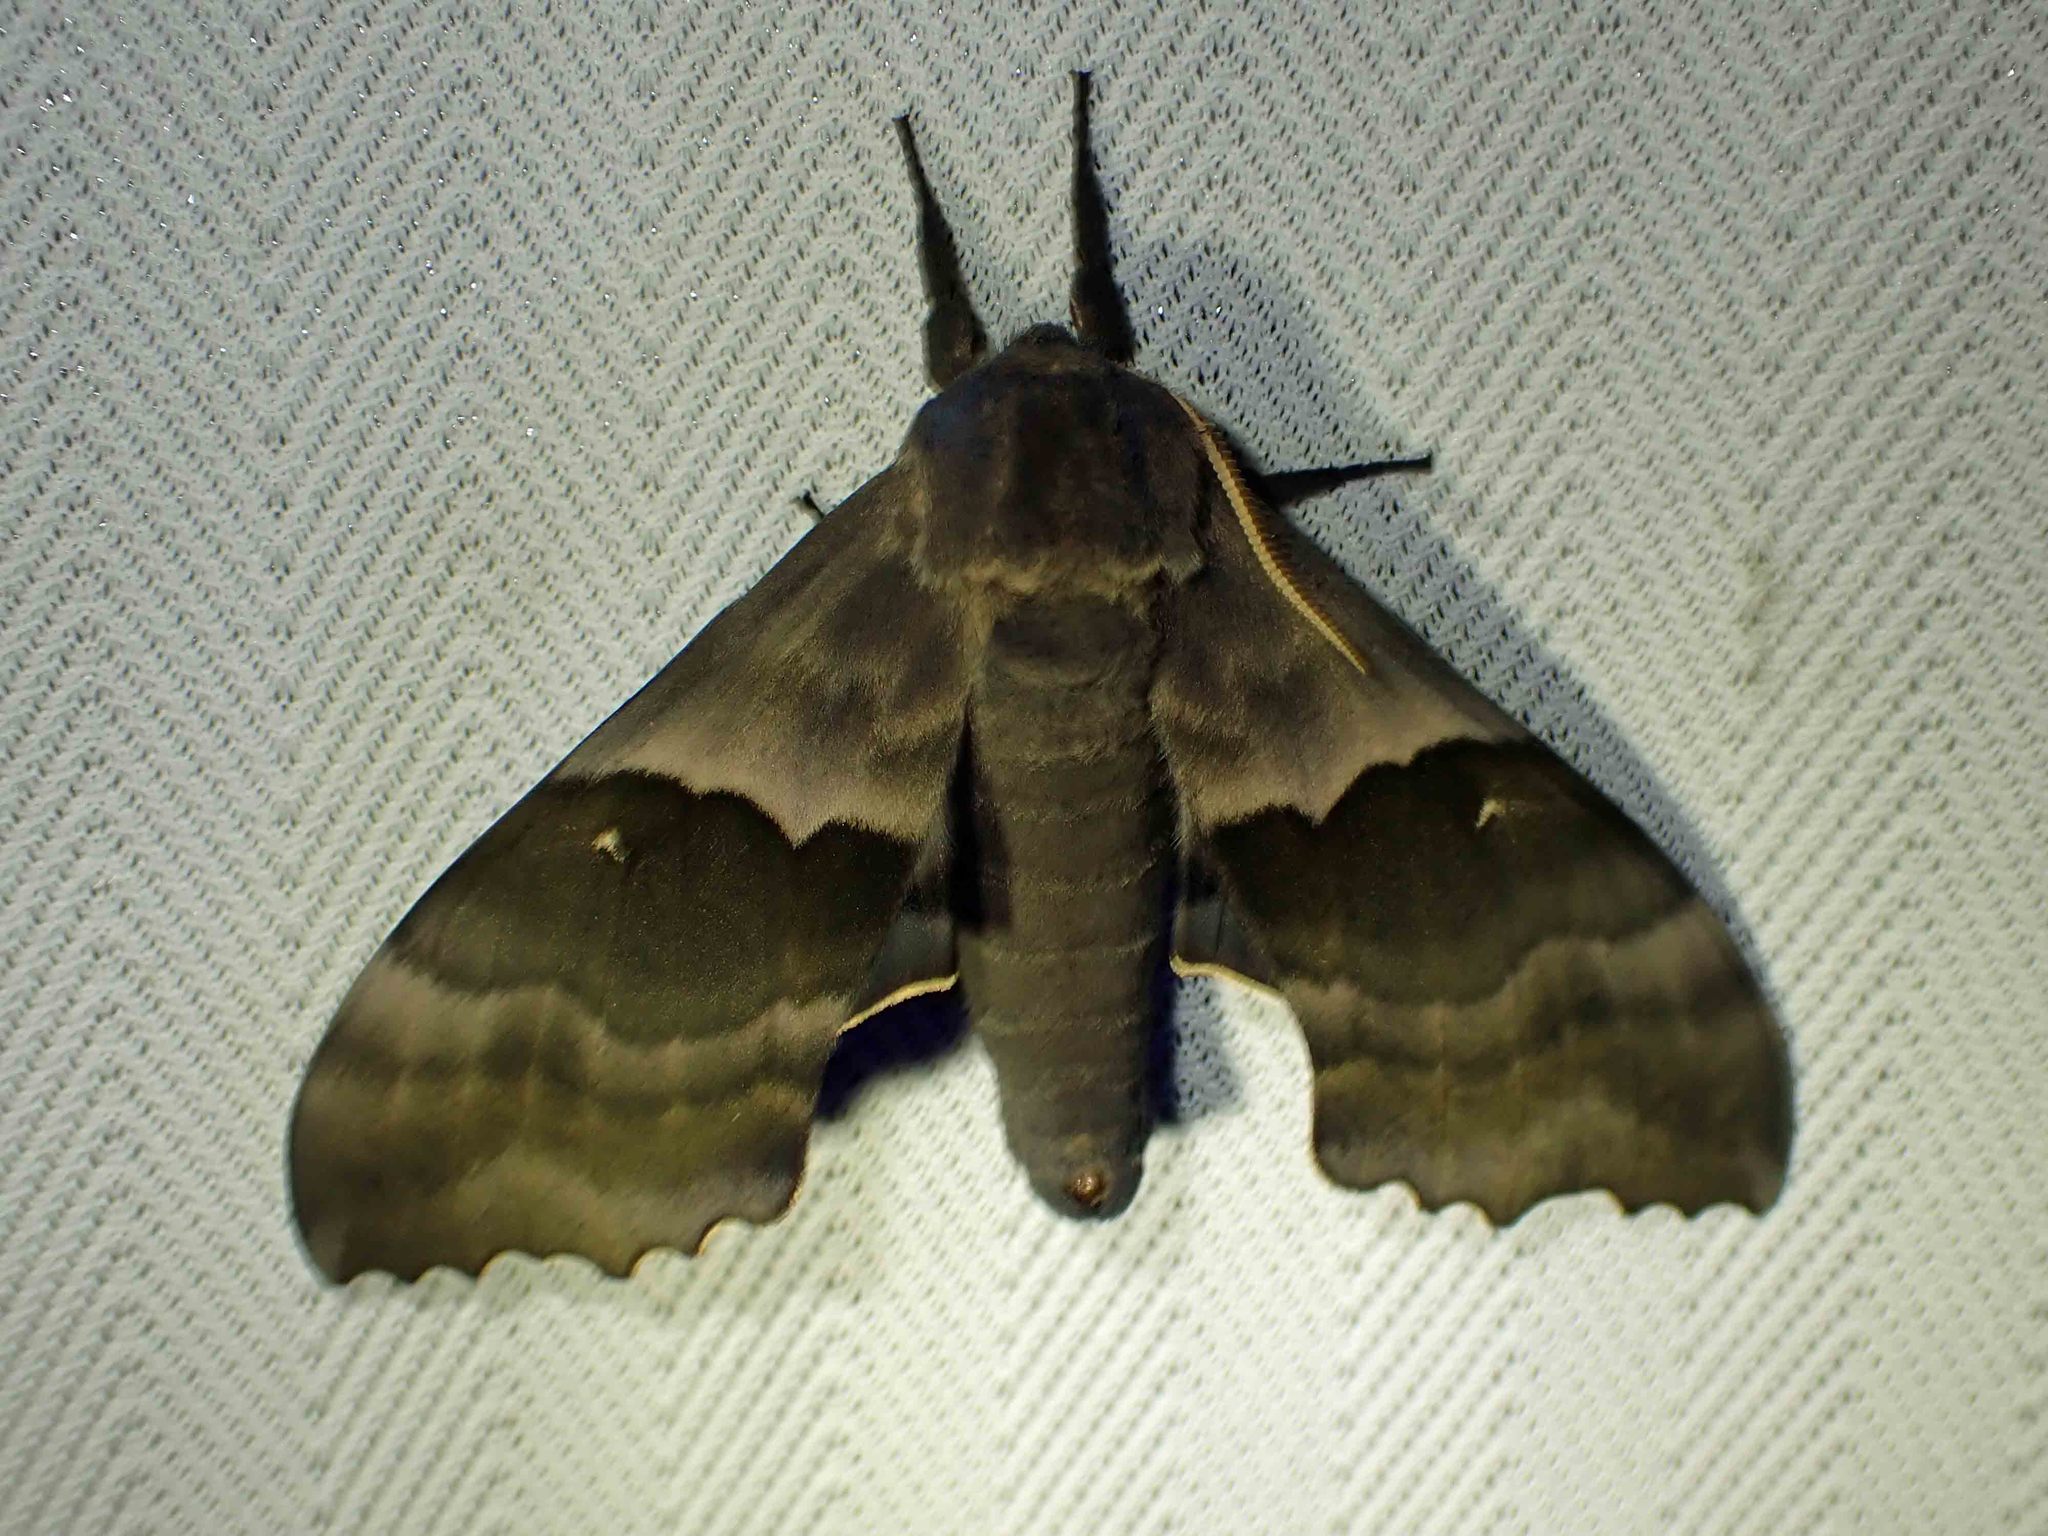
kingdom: Animalia
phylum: Arthropoda
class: Insecta
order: Lepidoptera
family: Sphingidae
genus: Pachysphinx
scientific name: Pachysphinx modesta
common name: Big poplar sphinx
